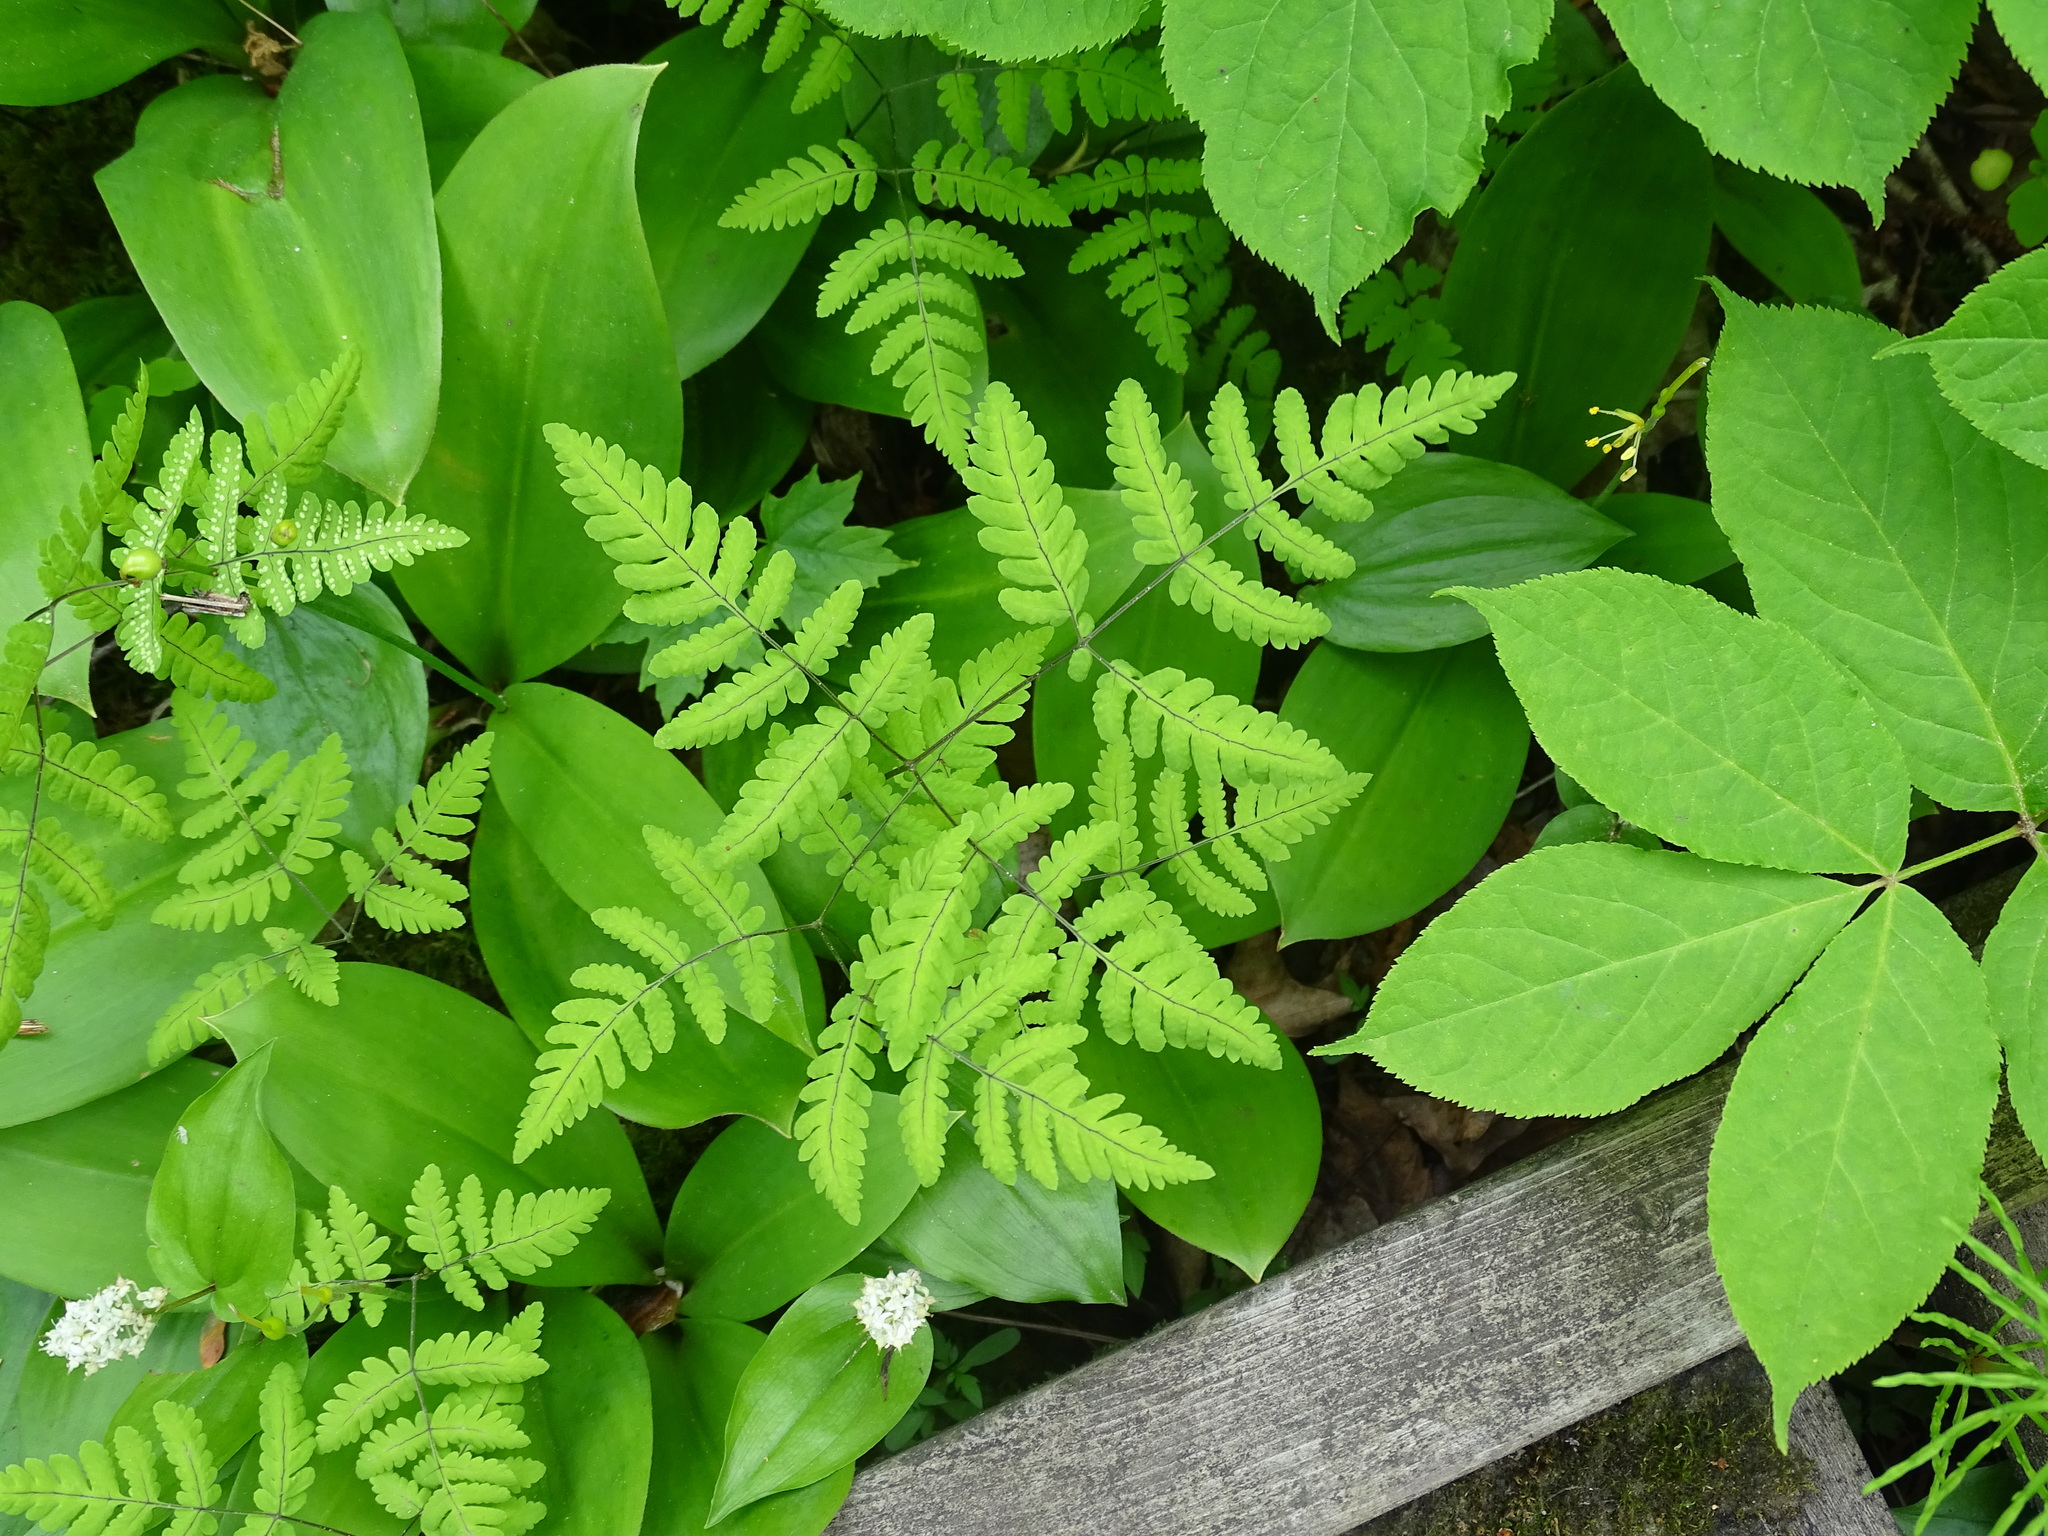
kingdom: Plantae
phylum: Tracheophyta
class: Polypodiopsida
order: Polypodiales
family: Cystopteridaceae
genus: Gymnocarpium
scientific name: Gymnocarpium dryopteris
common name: Oak fern
